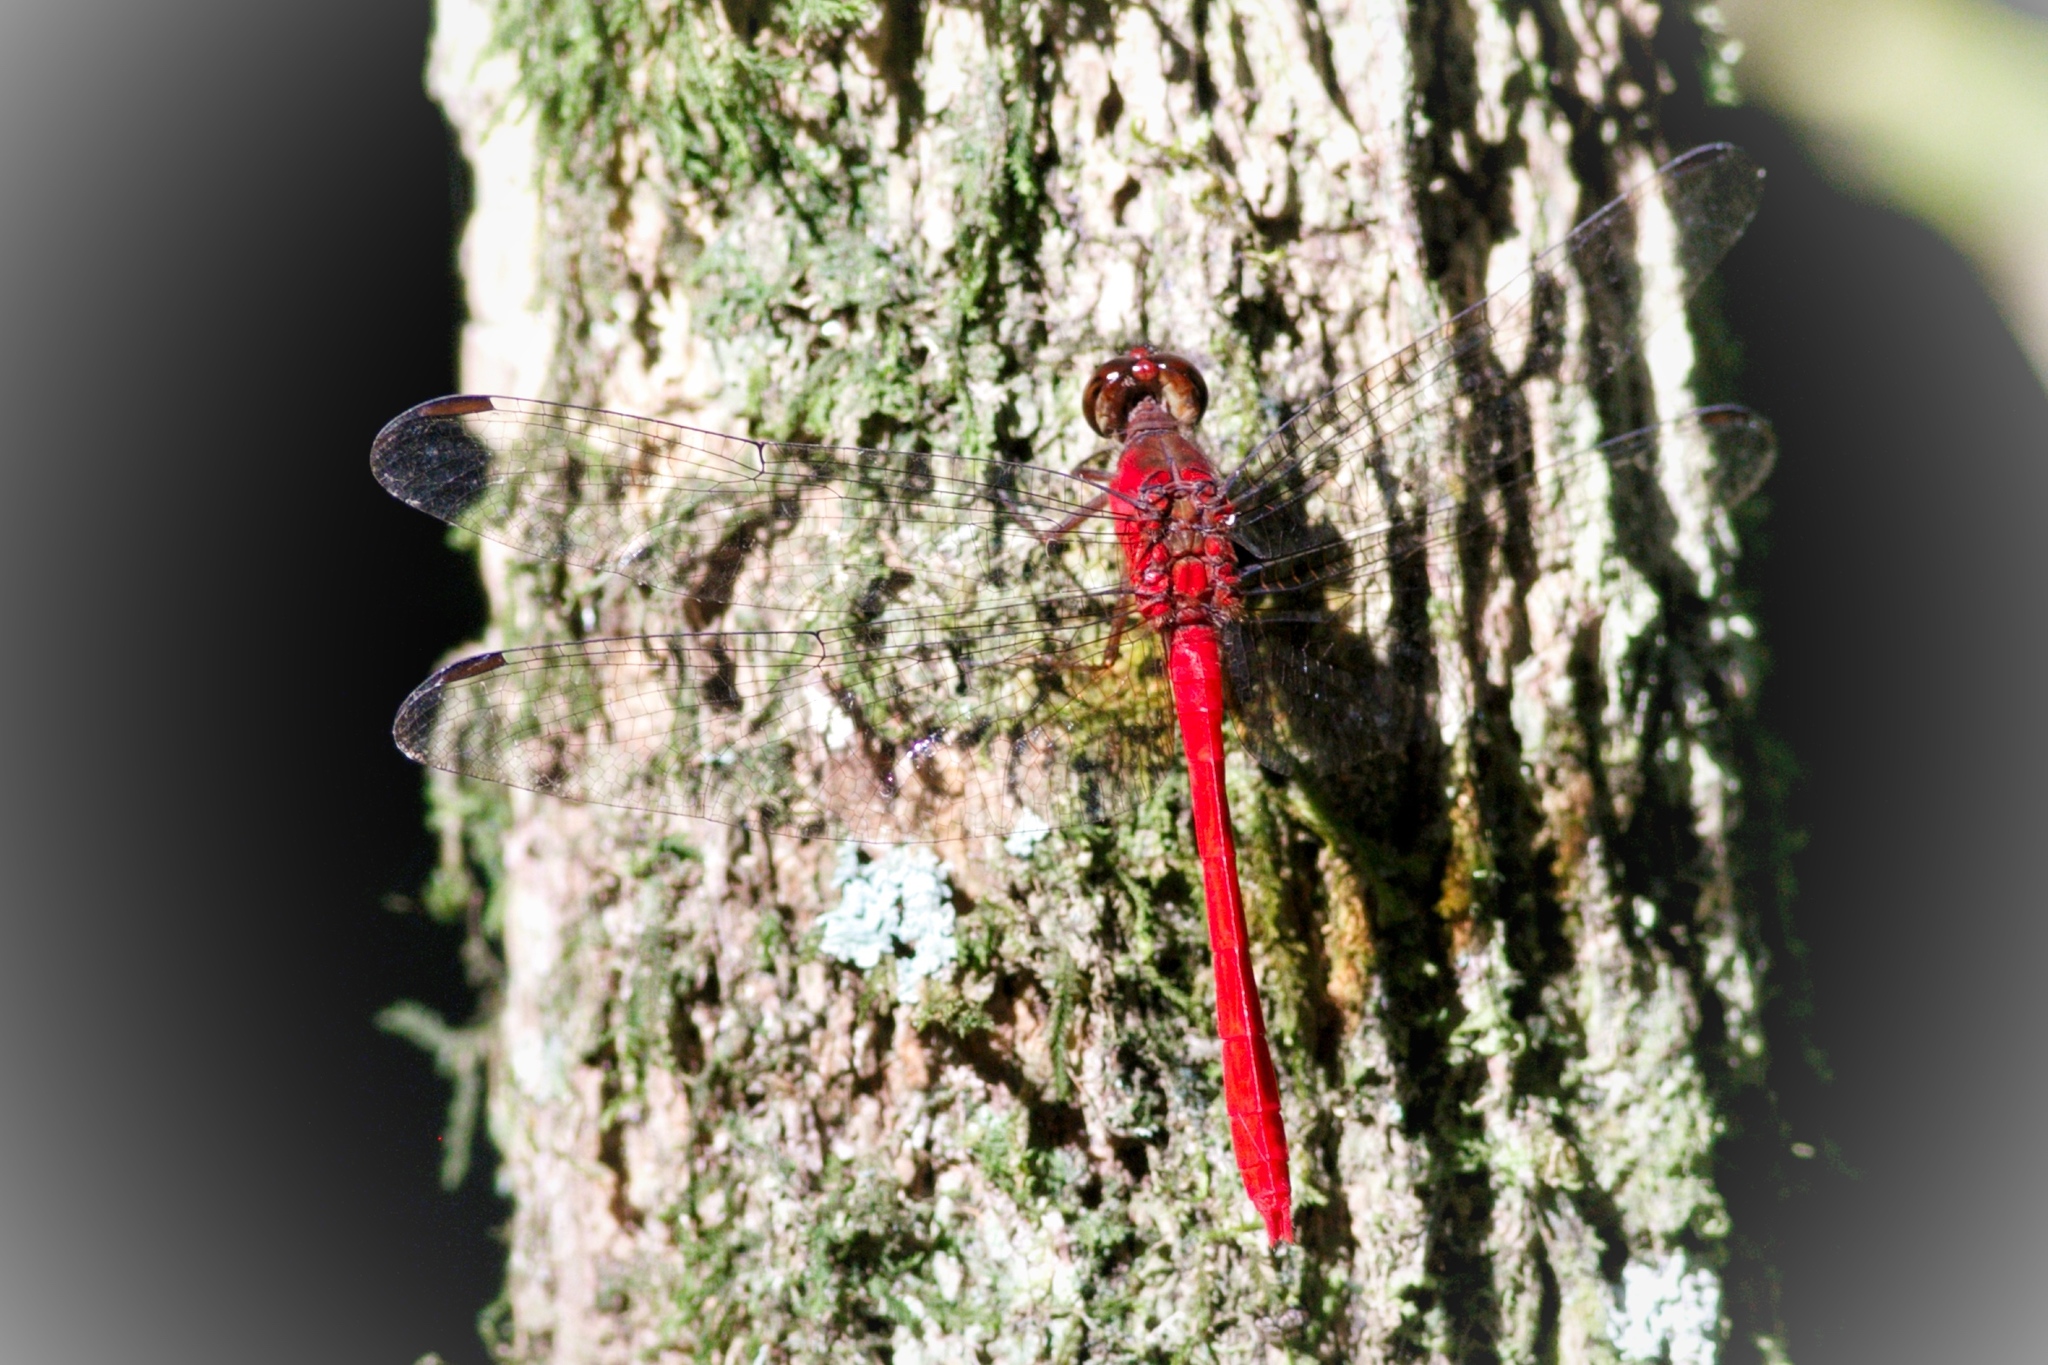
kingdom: Animalia
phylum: Arthropoda
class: Insecta
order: Odonata
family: Libellulidae
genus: Rhodopygia
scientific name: Rhodopygia cardinalis
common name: Cardinal redskimmer
